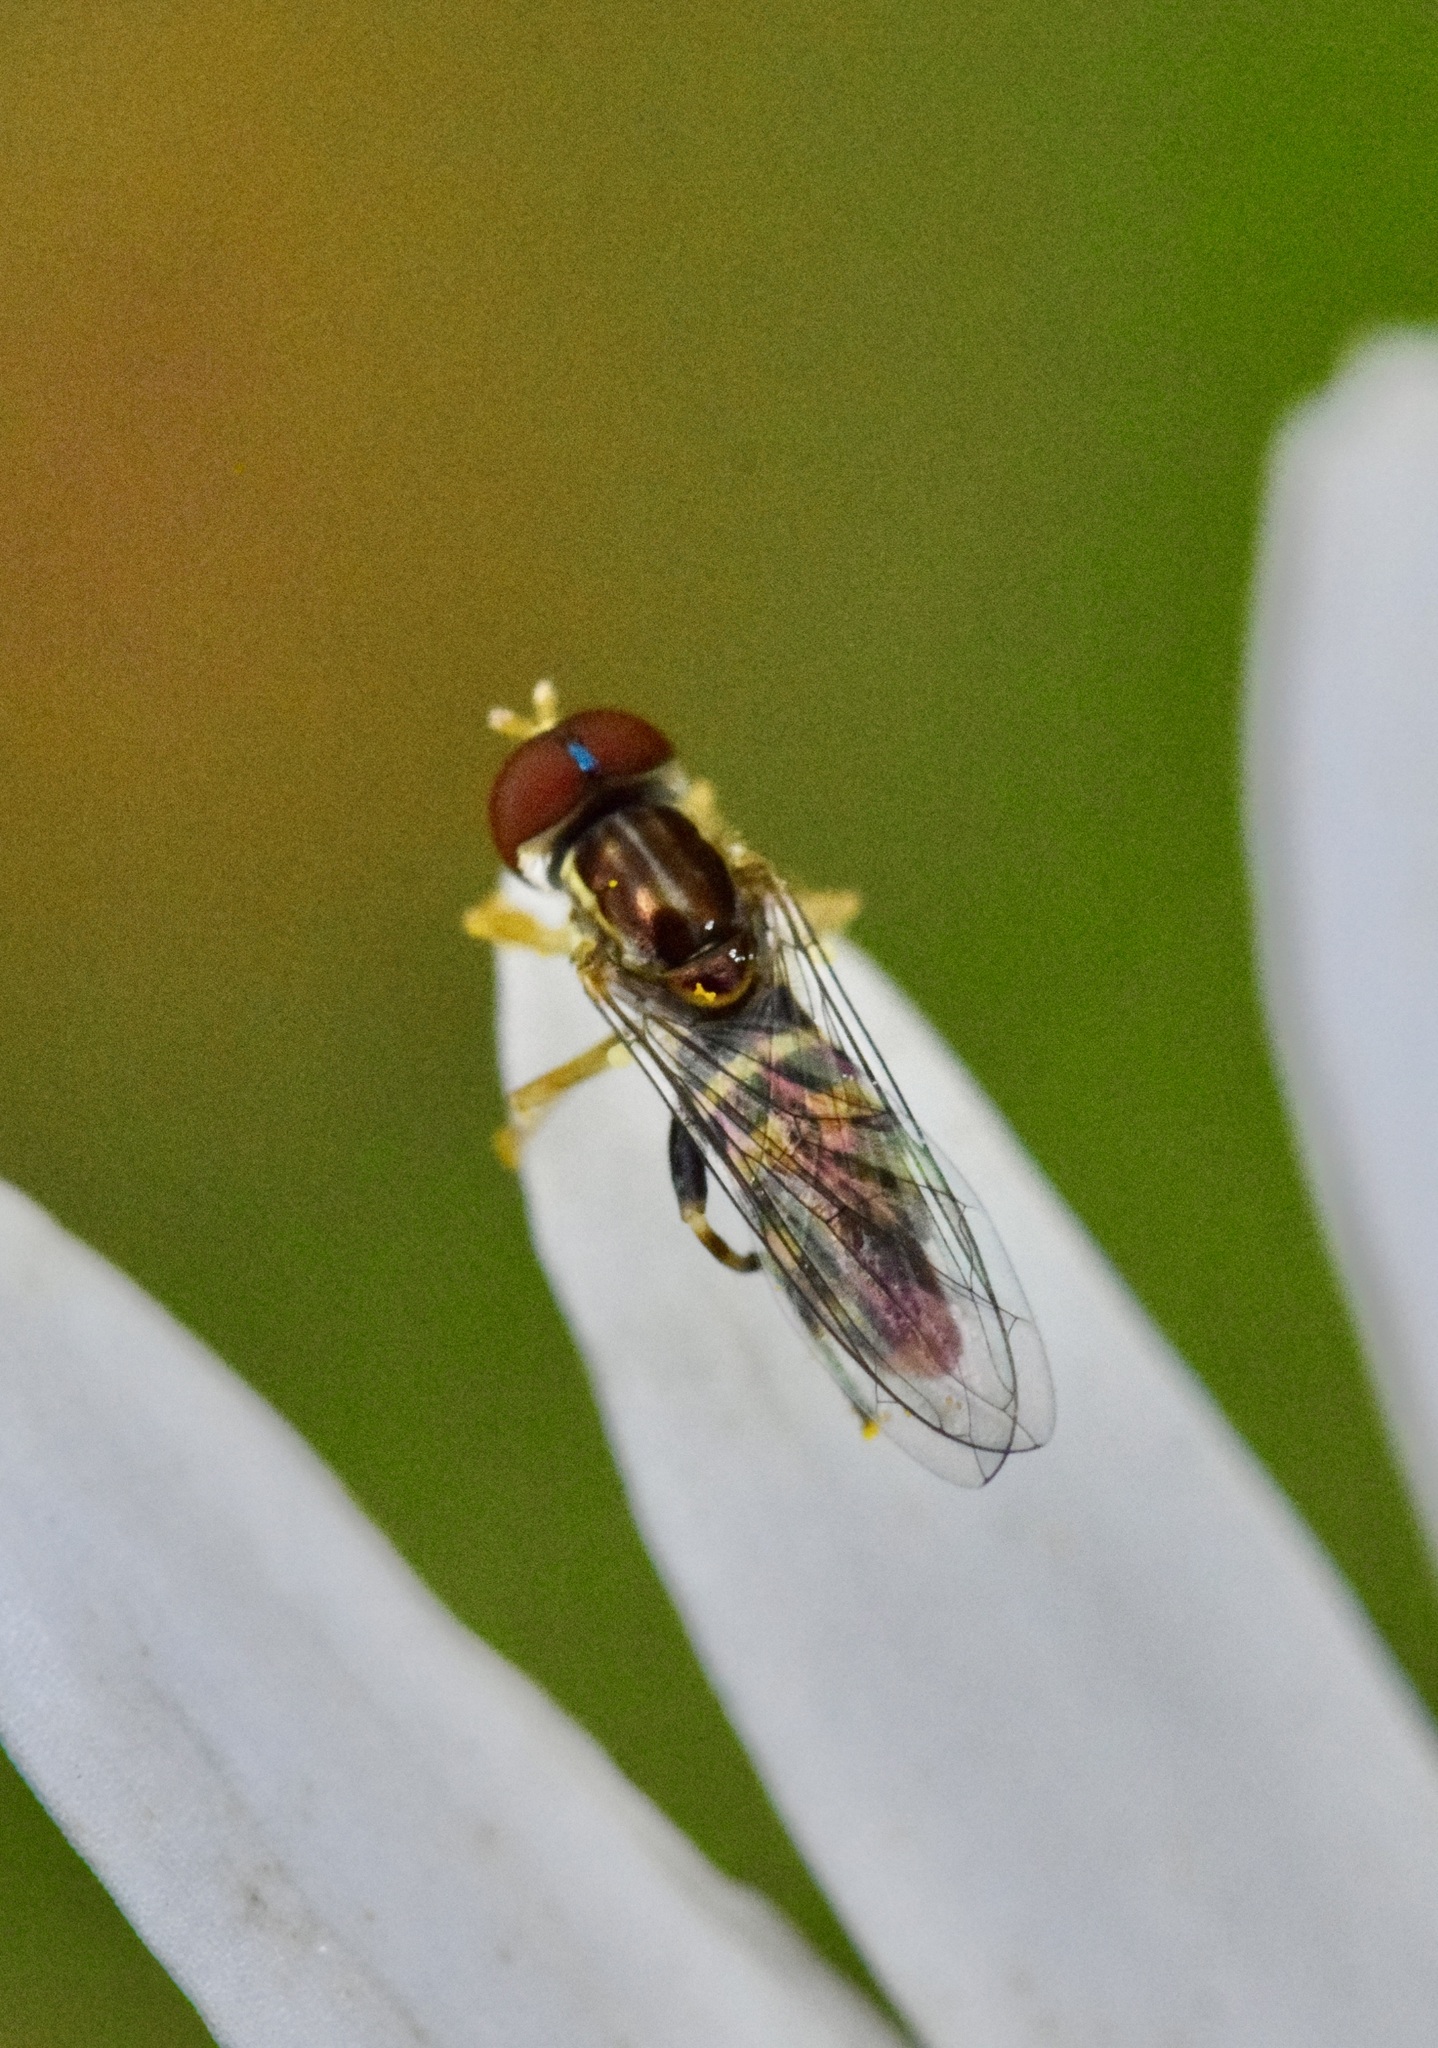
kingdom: Animalia
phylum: Arthropoda
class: Insecta
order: Diptera
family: Syrphidae
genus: Toxomerus
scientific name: Toxomerus geminatus
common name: Eastern calligrapher
